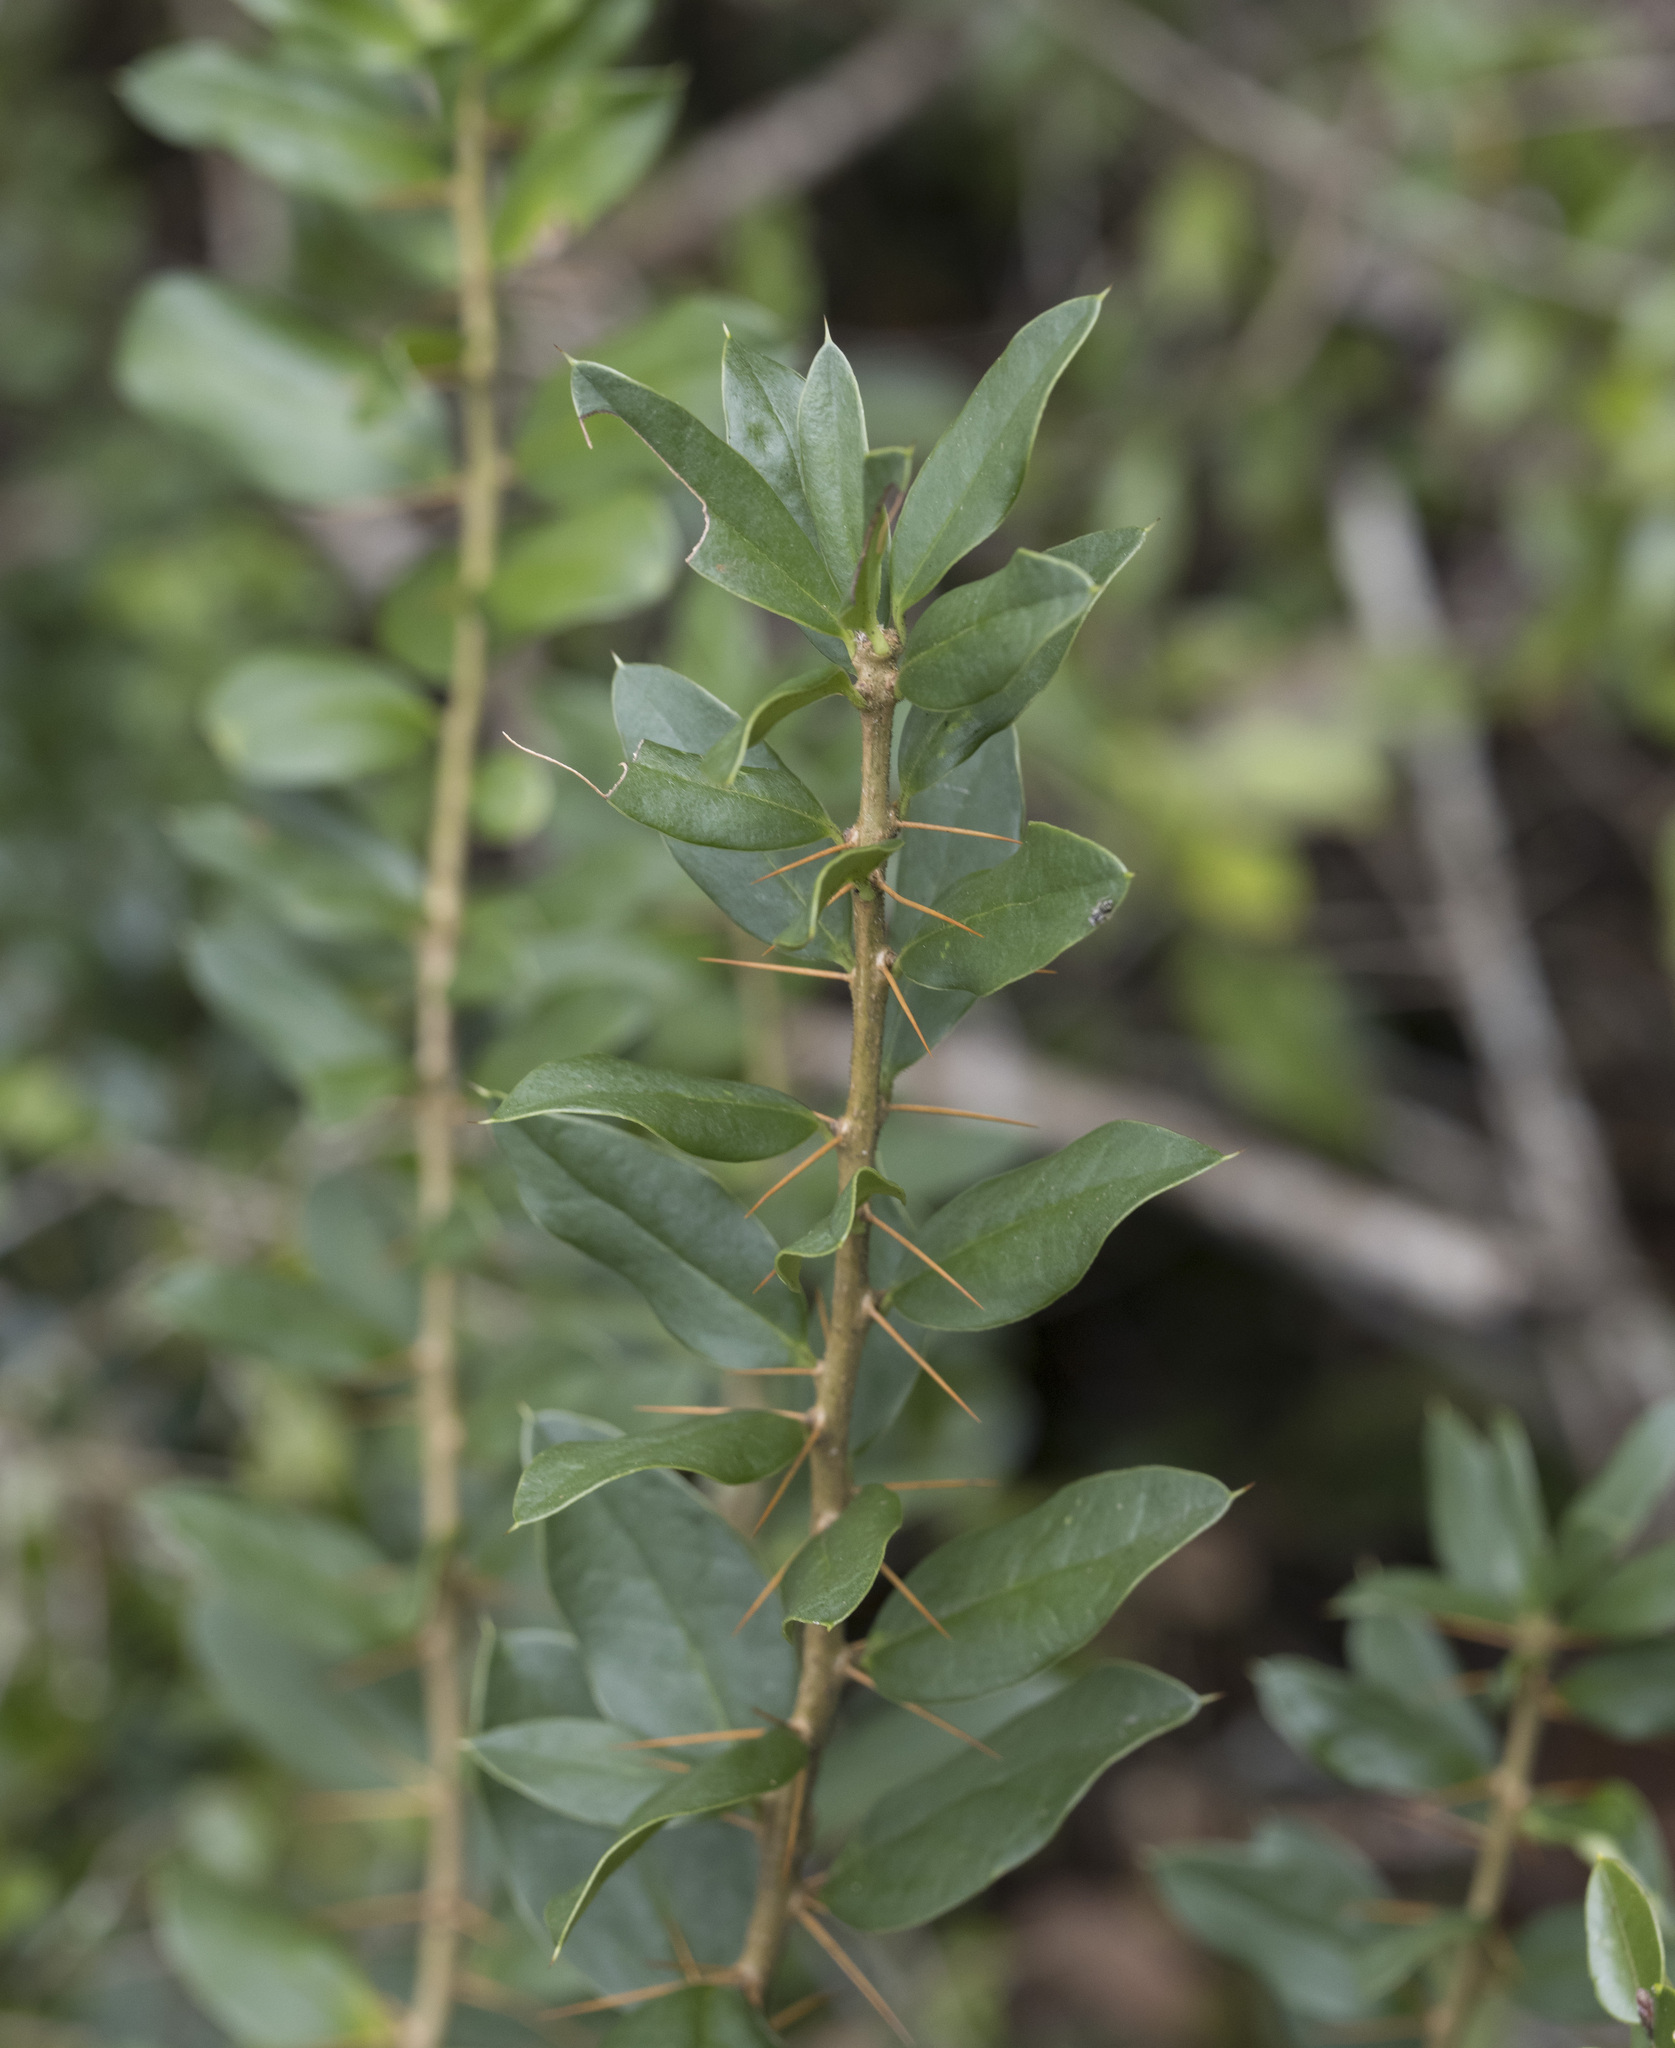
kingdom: Plantae
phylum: Tracheophyta
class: Magnoliopsida
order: Asterales
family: Asteraceae
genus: Archidasyphyllum
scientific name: Archidasyphyllum diacanthoides
